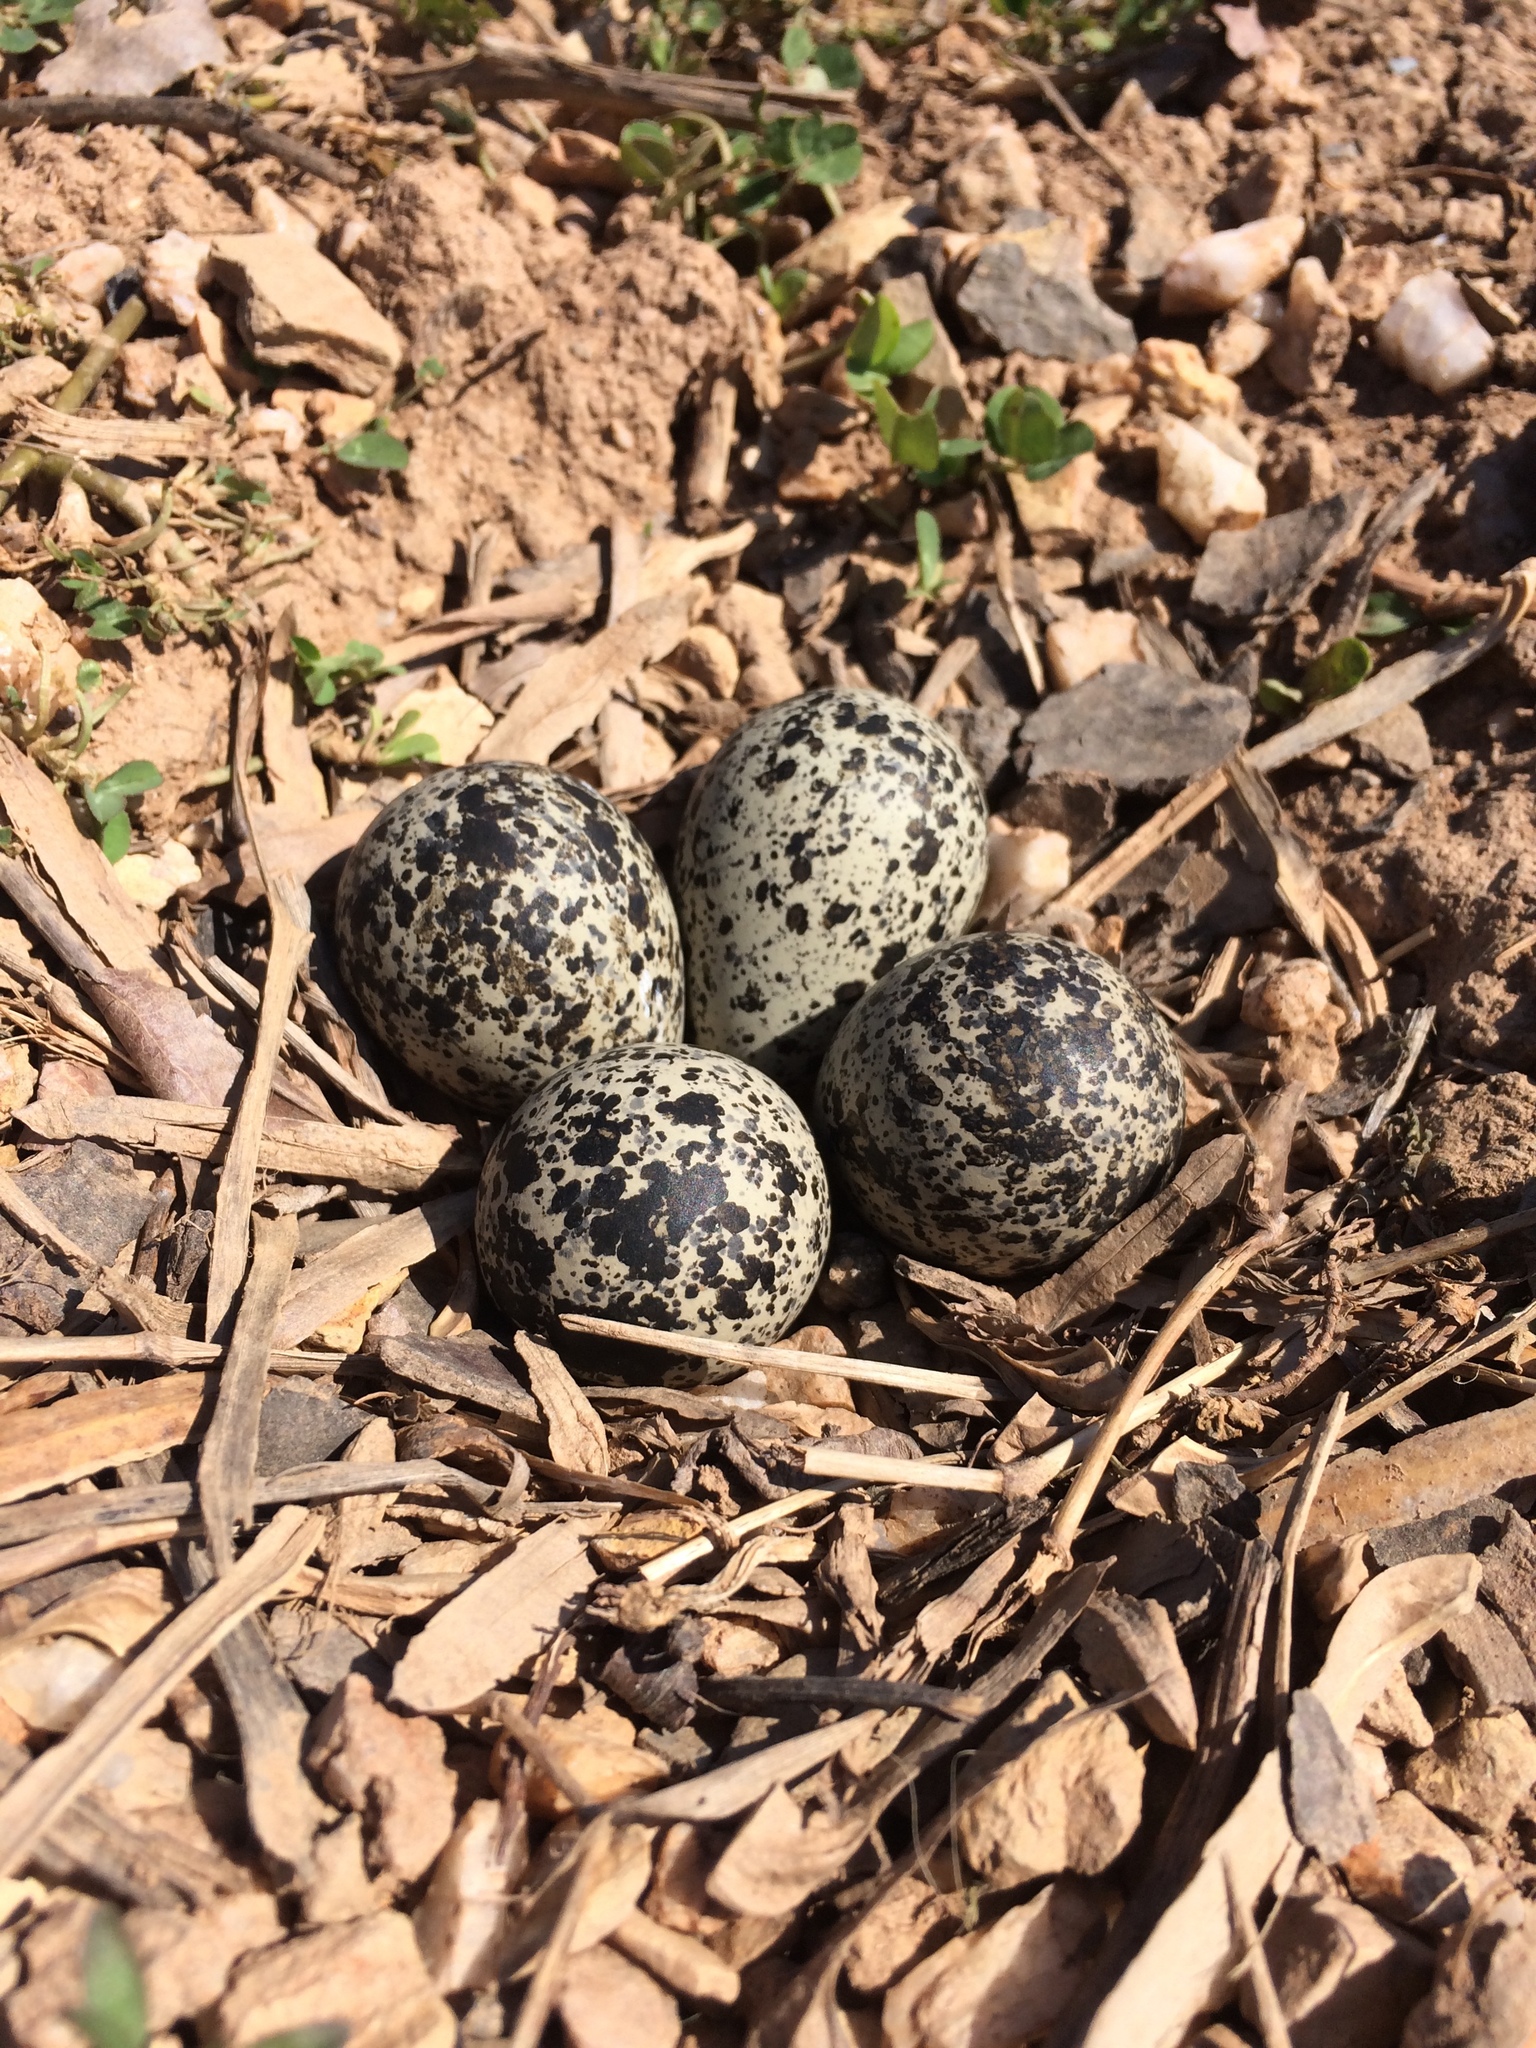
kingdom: Animalia
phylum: Chordata
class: Aves
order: Charadriiformes
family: Charadriidae
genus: Charadrius
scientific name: Charadrius vociferus
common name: Killdeer
